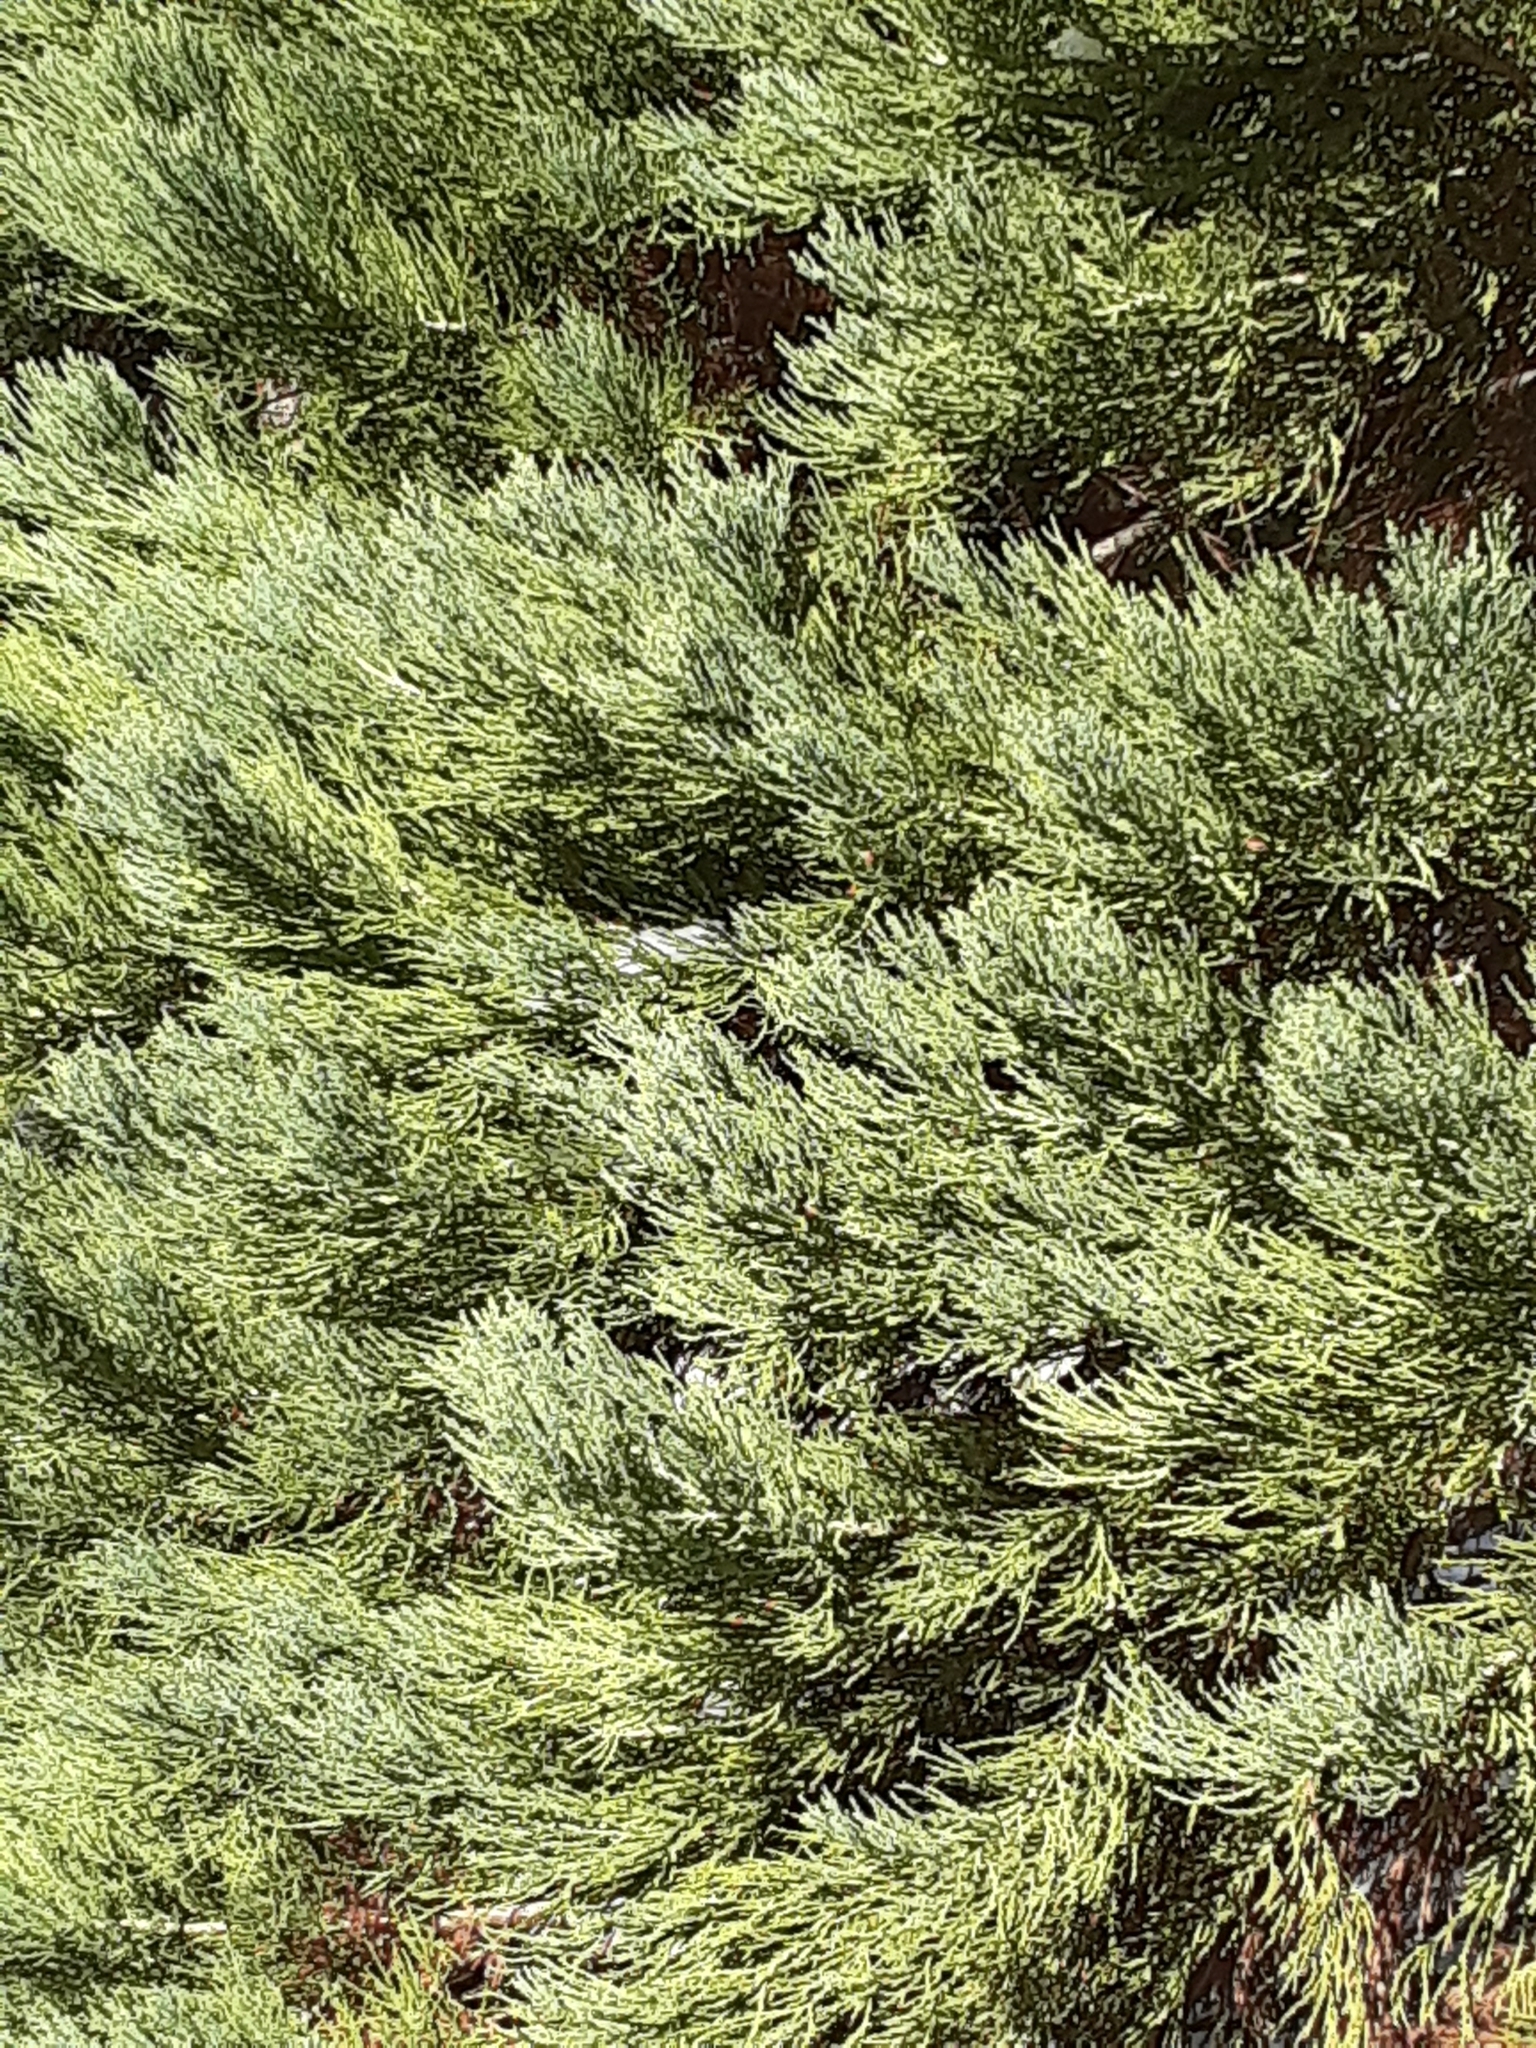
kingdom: Plantae
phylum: Tracheophyta
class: Pinopsida
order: Pinales
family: Cupressaceae
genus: Sequoiadendron
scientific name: Sequoiadendron giganteum
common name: Wellingtonia
